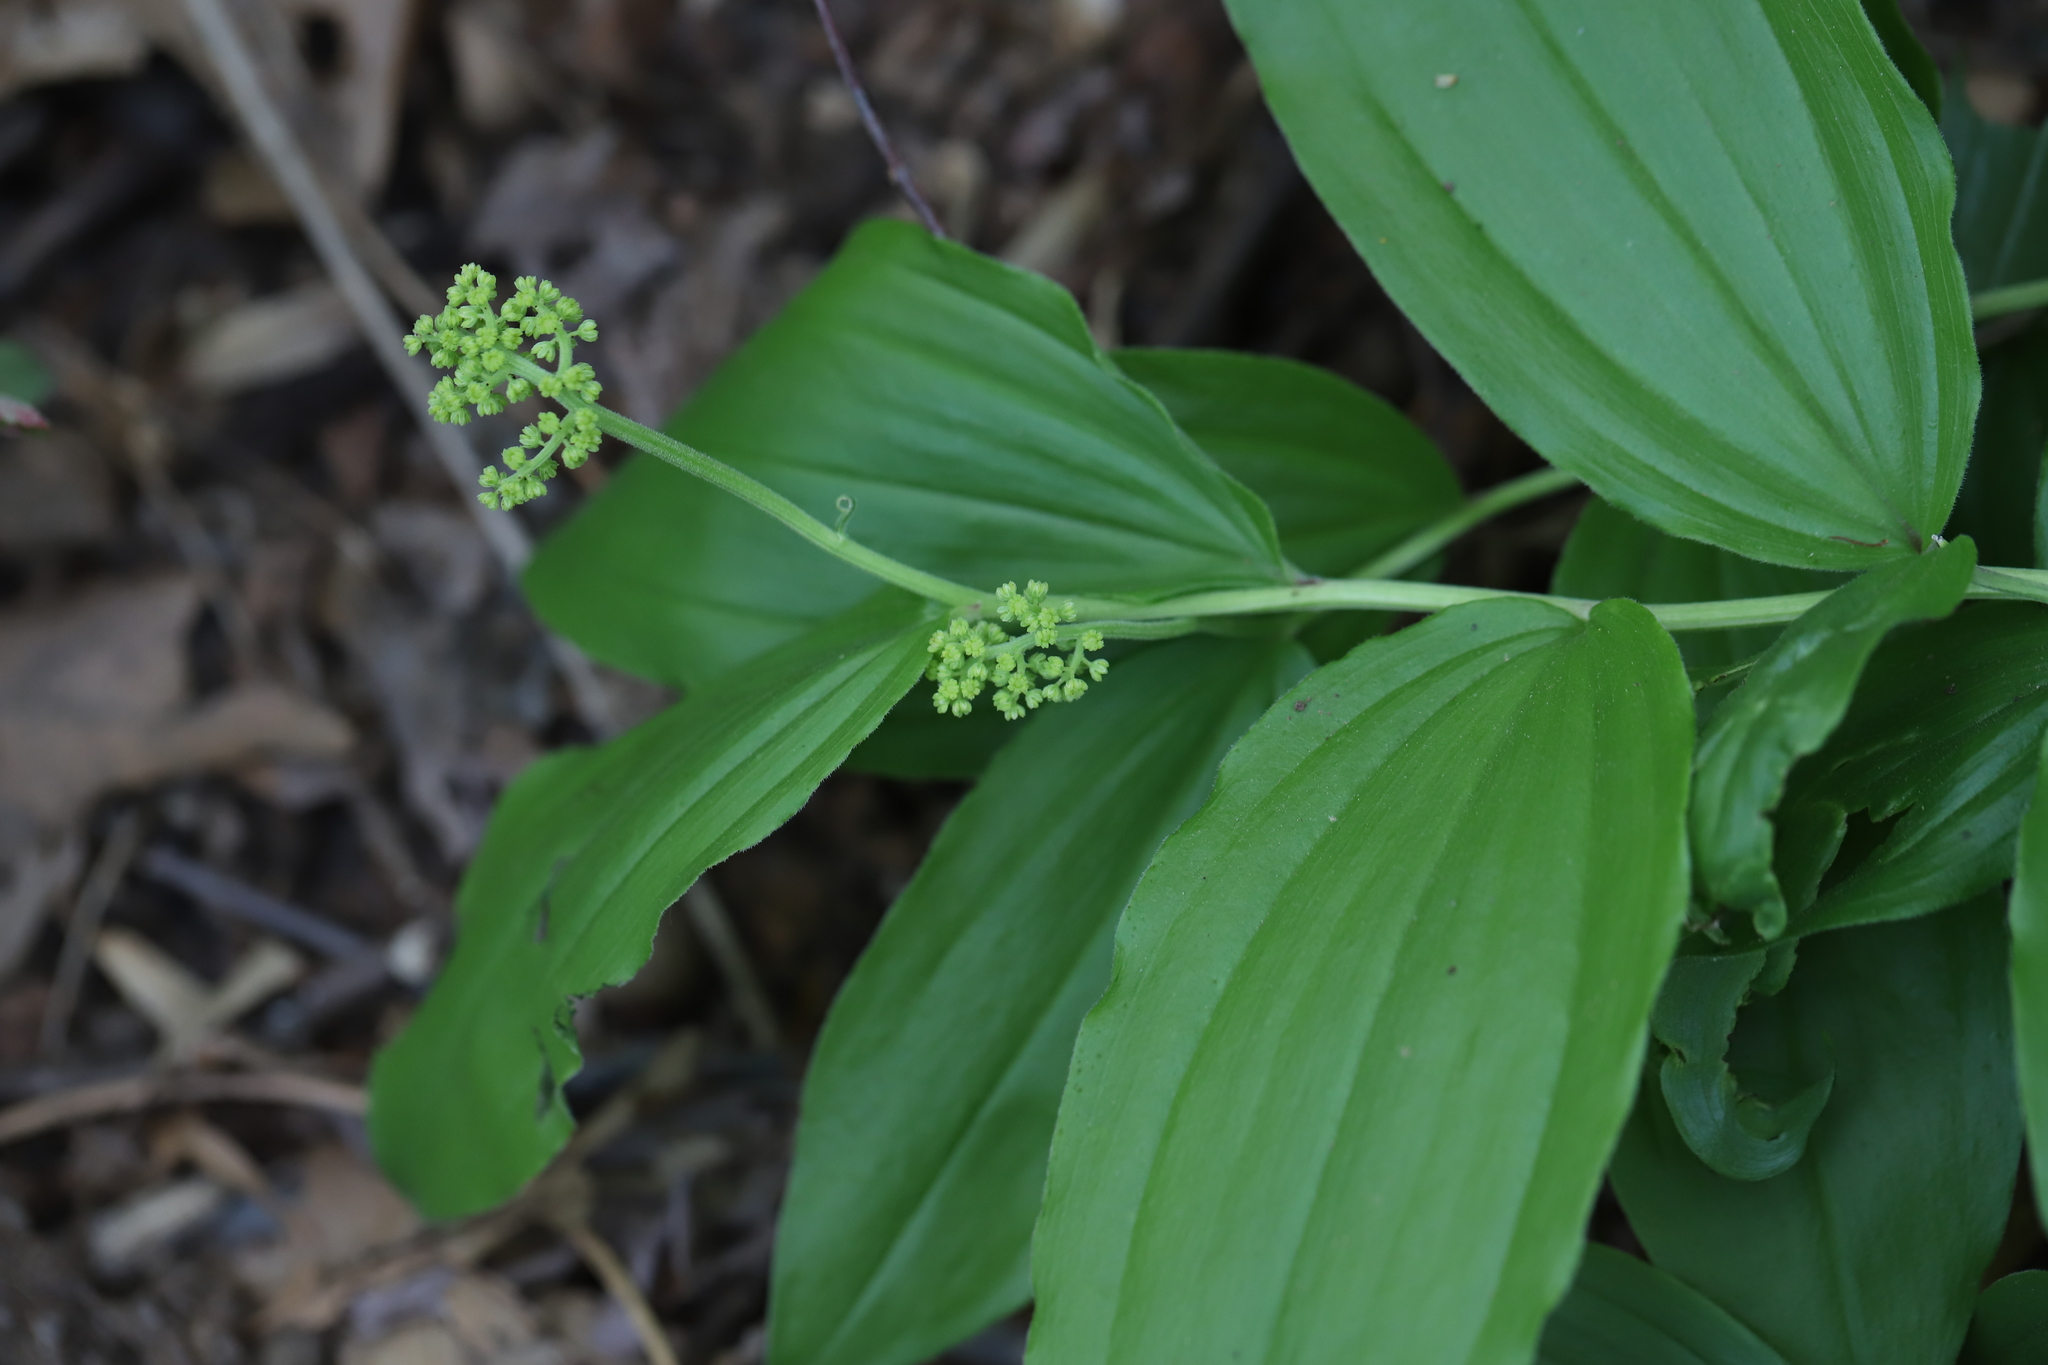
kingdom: Plantae
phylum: Tracheophyta
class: Liliopsida
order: Asparagales
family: Asparagaceae
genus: Maianthemum
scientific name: Maianthemum racemosum
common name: False spikenard
